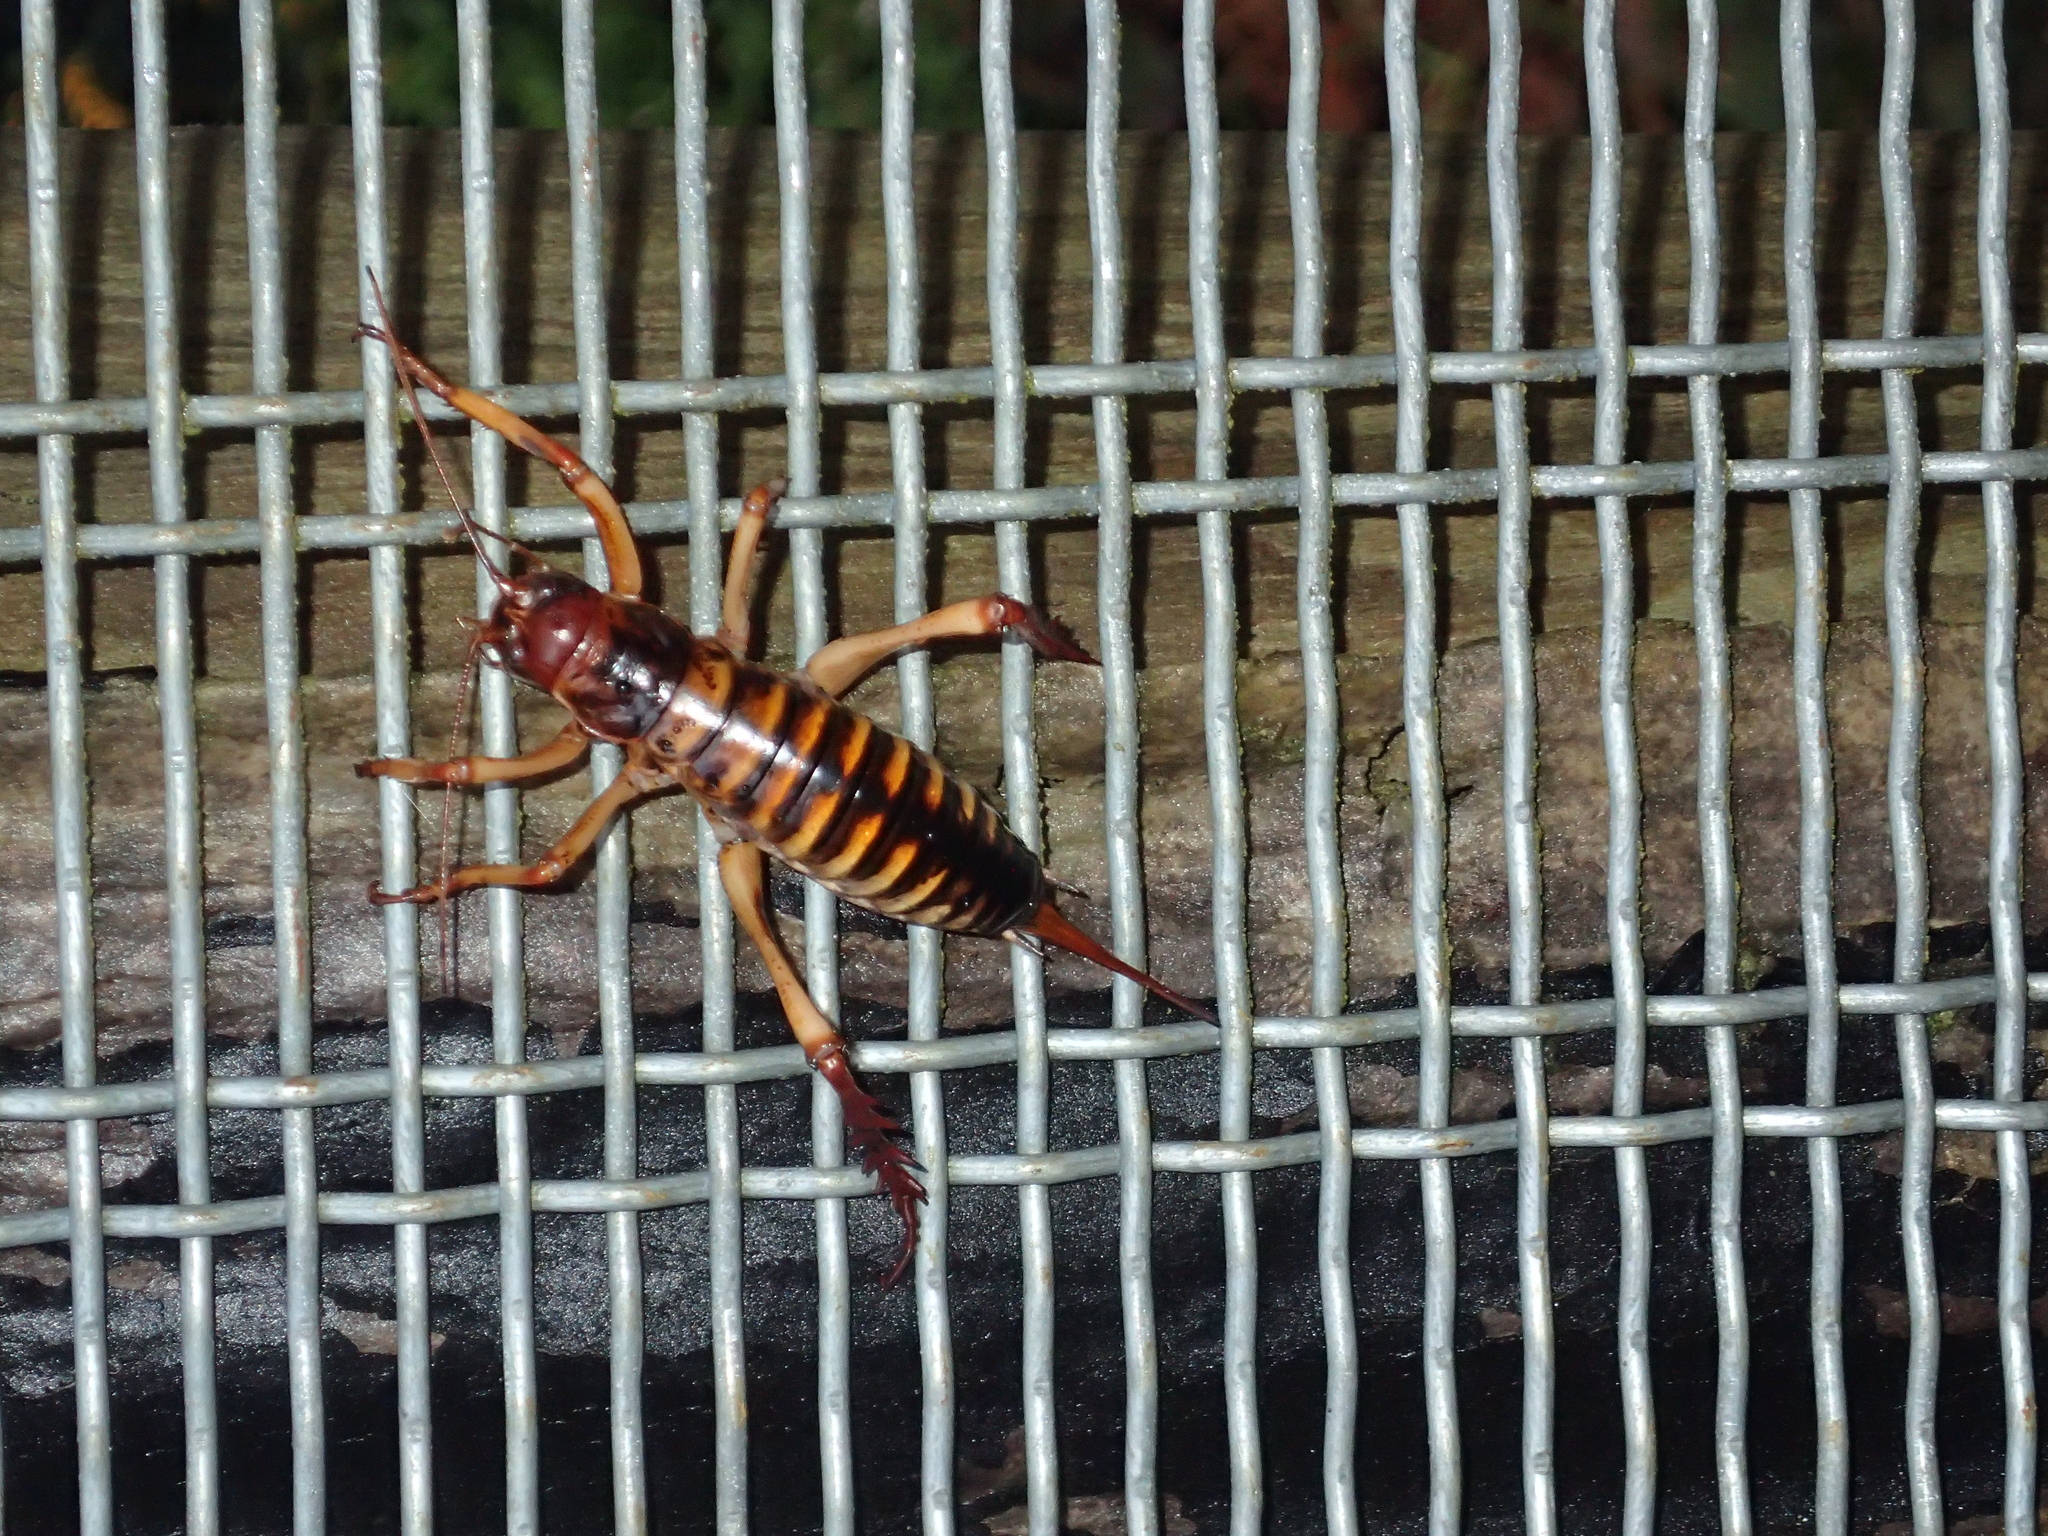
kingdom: Animalia
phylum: Arthropoda
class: Insecta
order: Orthoptera
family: Anostostomatidae
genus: Hemideina
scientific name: Hemideina crassidens
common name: Wellington tree weta
